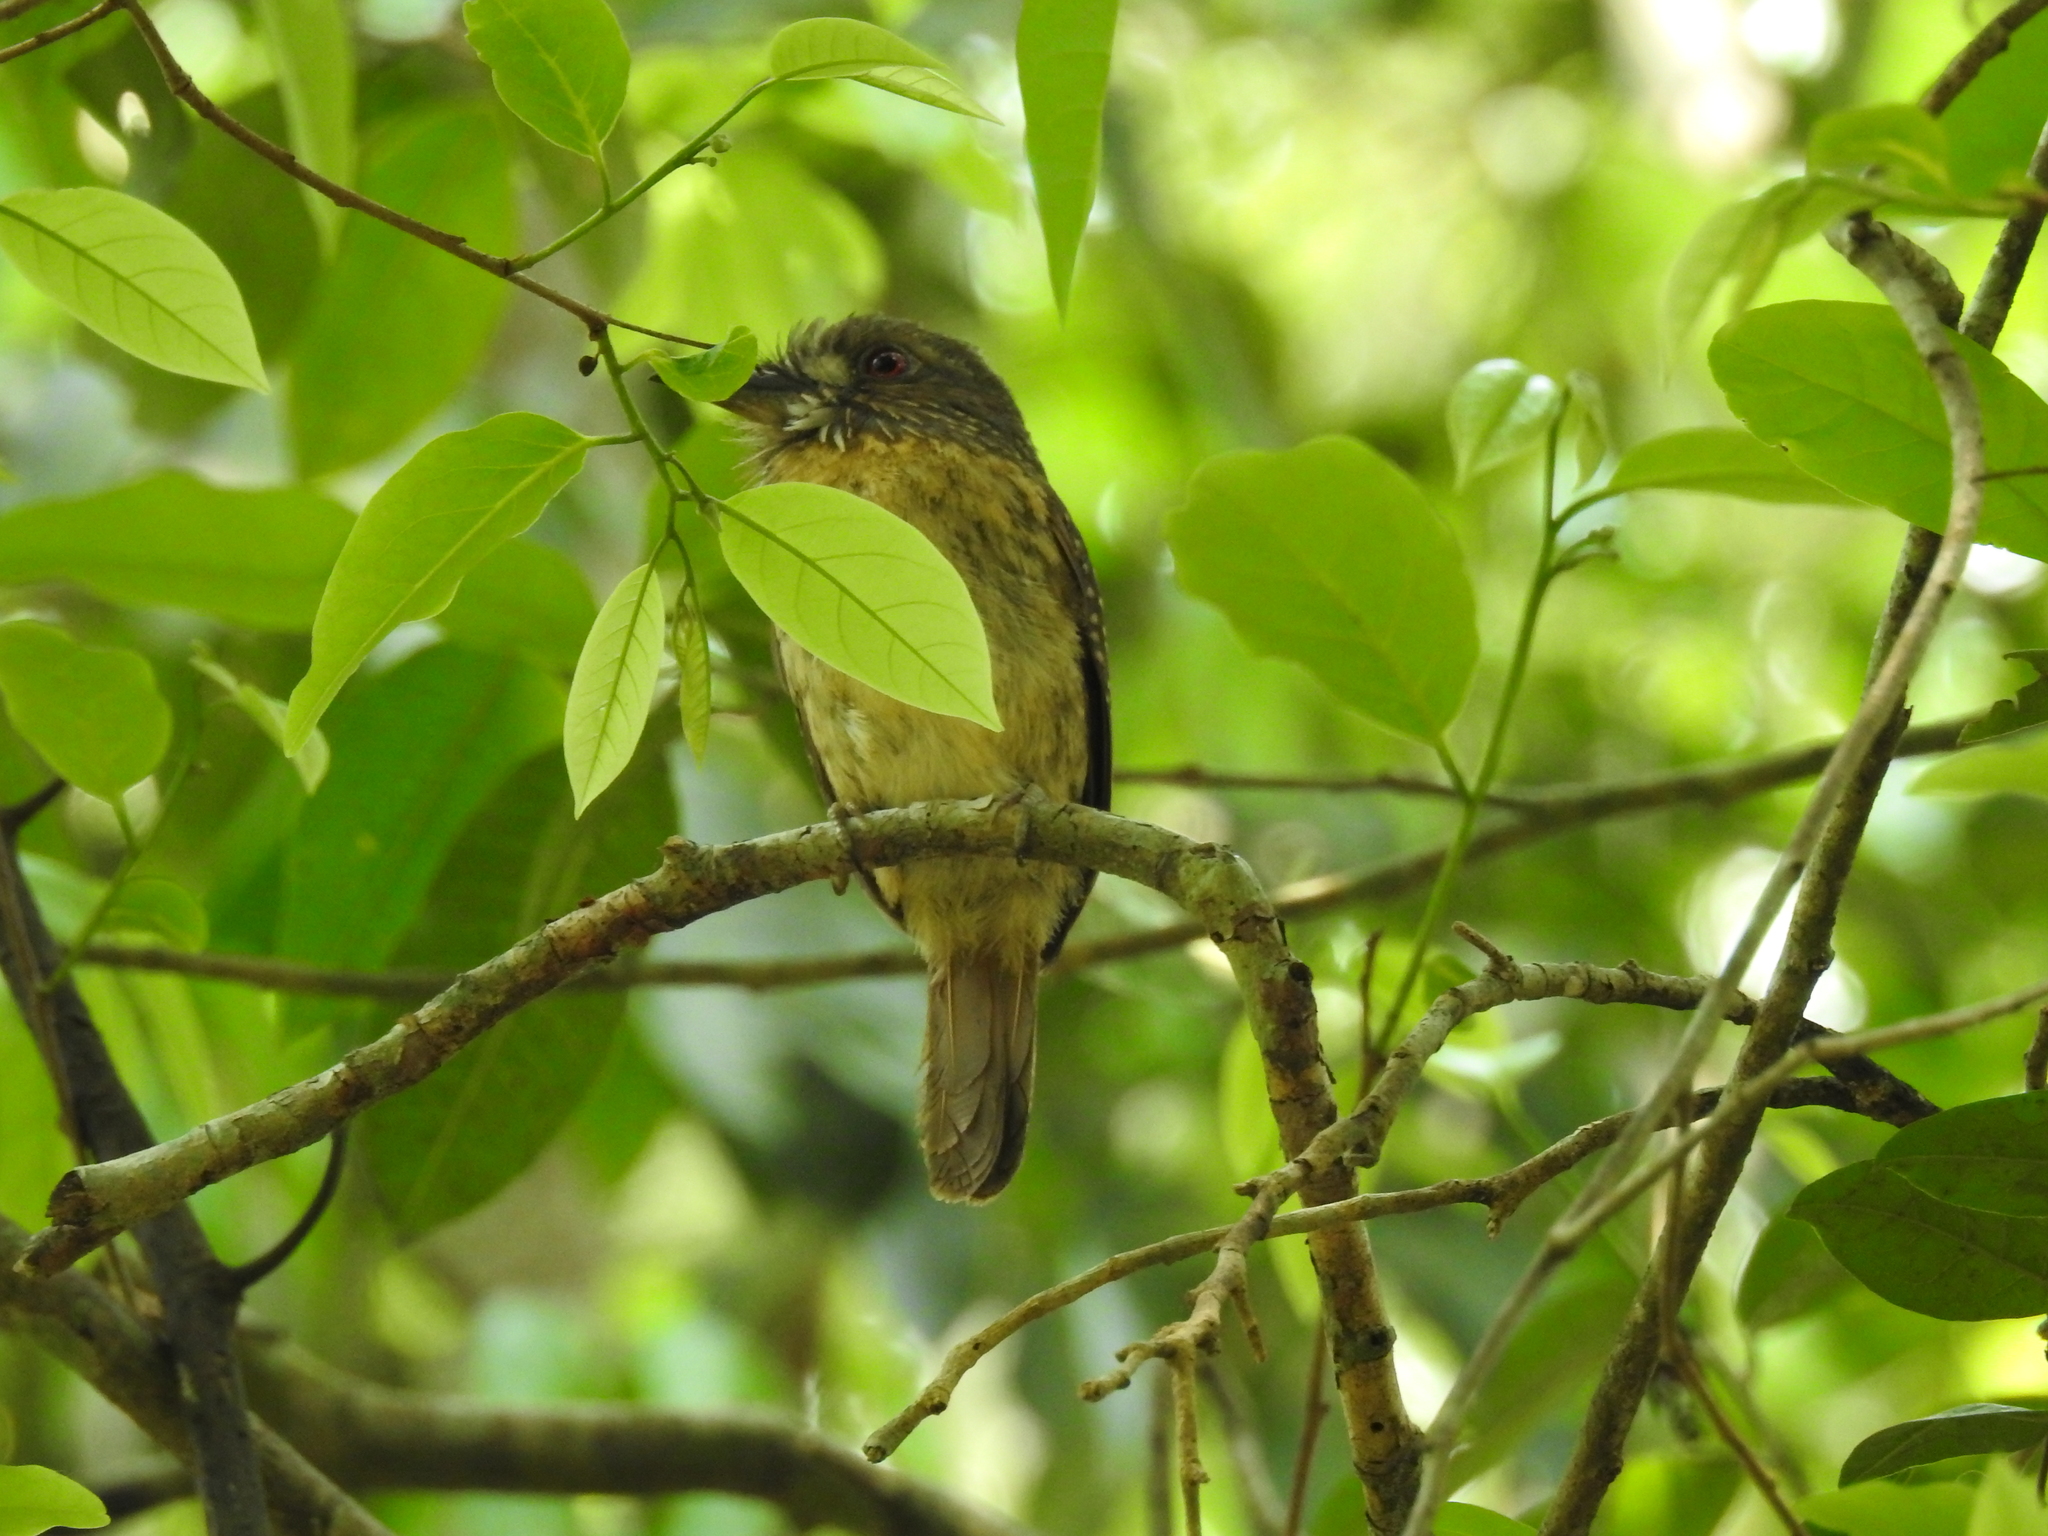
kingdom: Animalia
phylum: Chordata
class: Aves
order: Piciformes
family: Bucconidae
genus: Malacoptila
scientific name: Malacoptila panamensis
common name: White-whiskered puffbird
